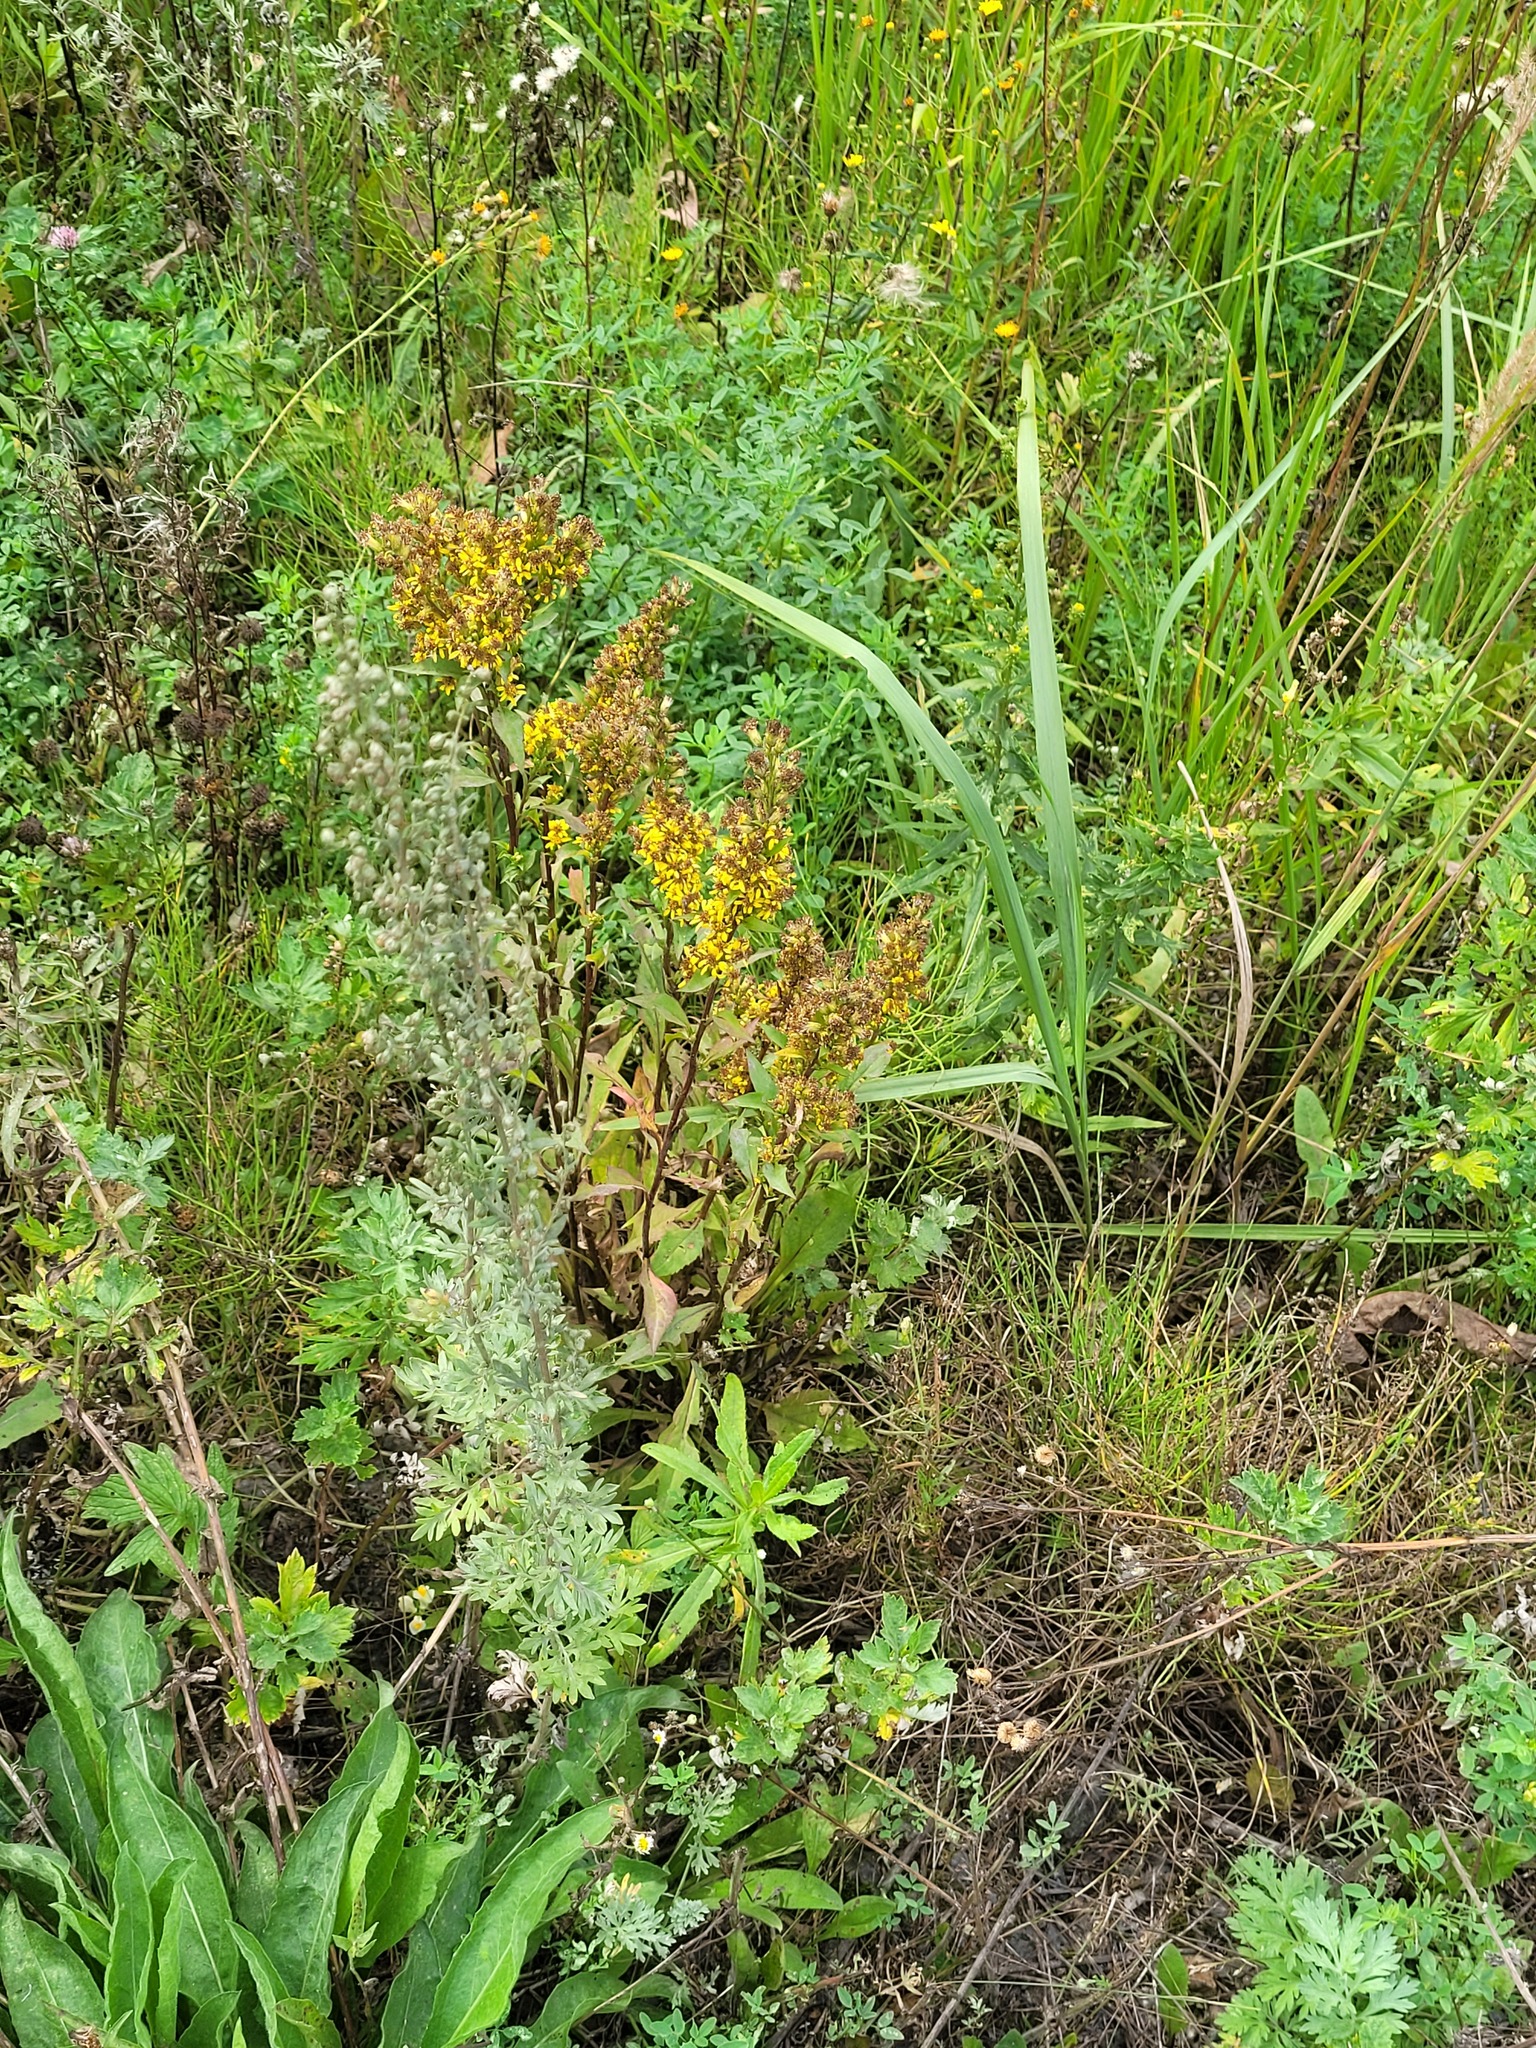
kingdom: Plantae
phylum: Tracheophyta
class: Magnoliopsida
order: Asterales
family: Asteraceae
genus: Artemisia
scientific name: Artemisia absinthium
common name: Wormwood
